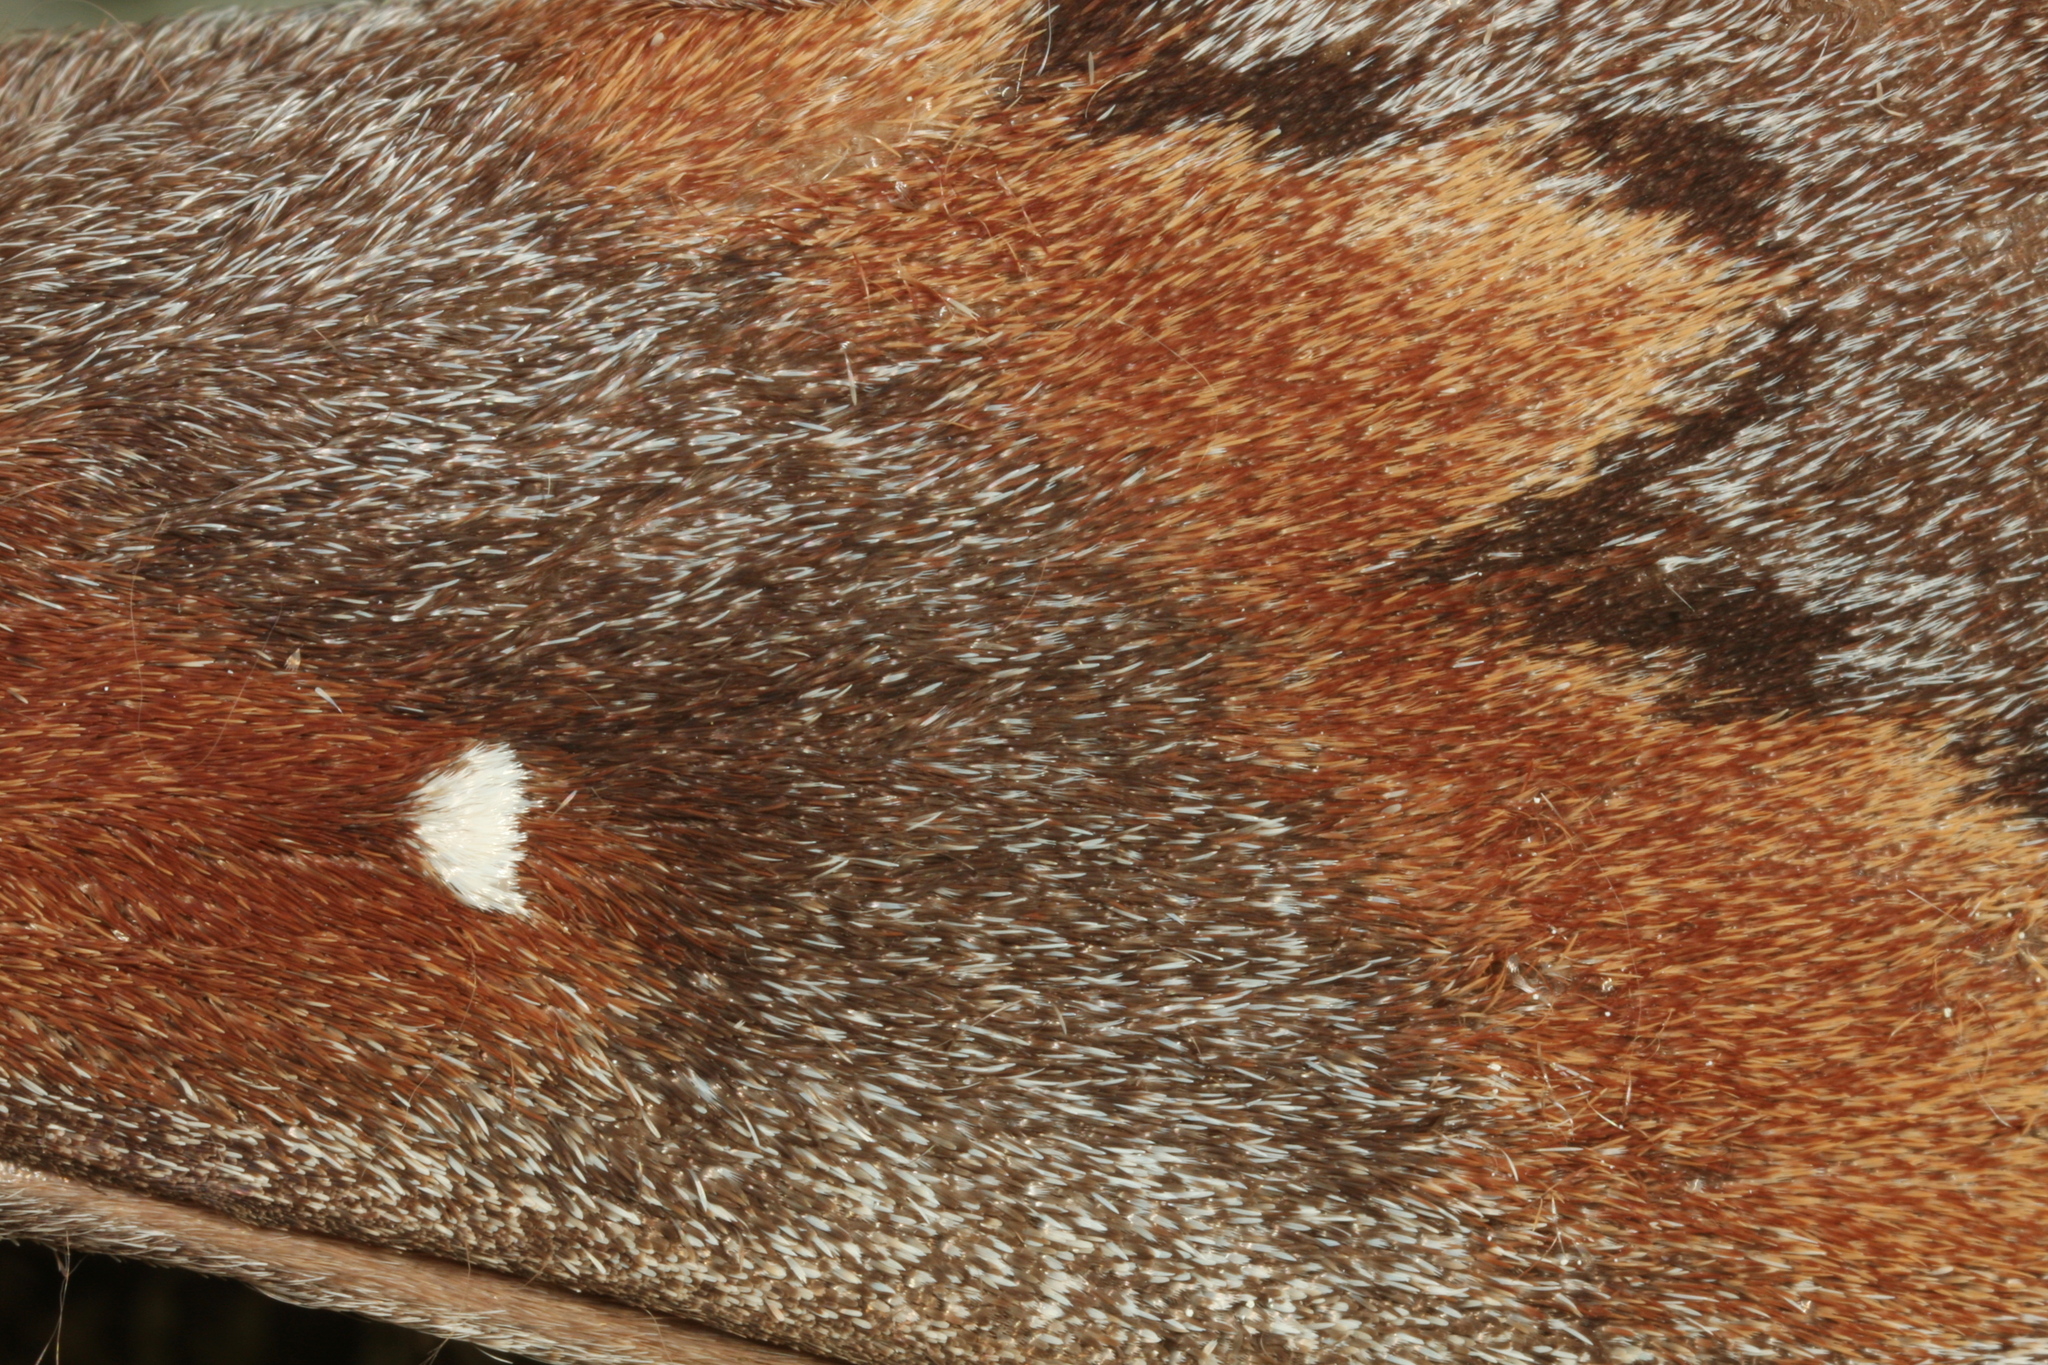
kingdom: Animalia
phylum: Arthropoda
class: Insecta
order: Lepidoptera
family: Lasiocampidae
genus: Dendrolimus
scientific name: Dendrolimus pini
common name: Pine-tree lappet
